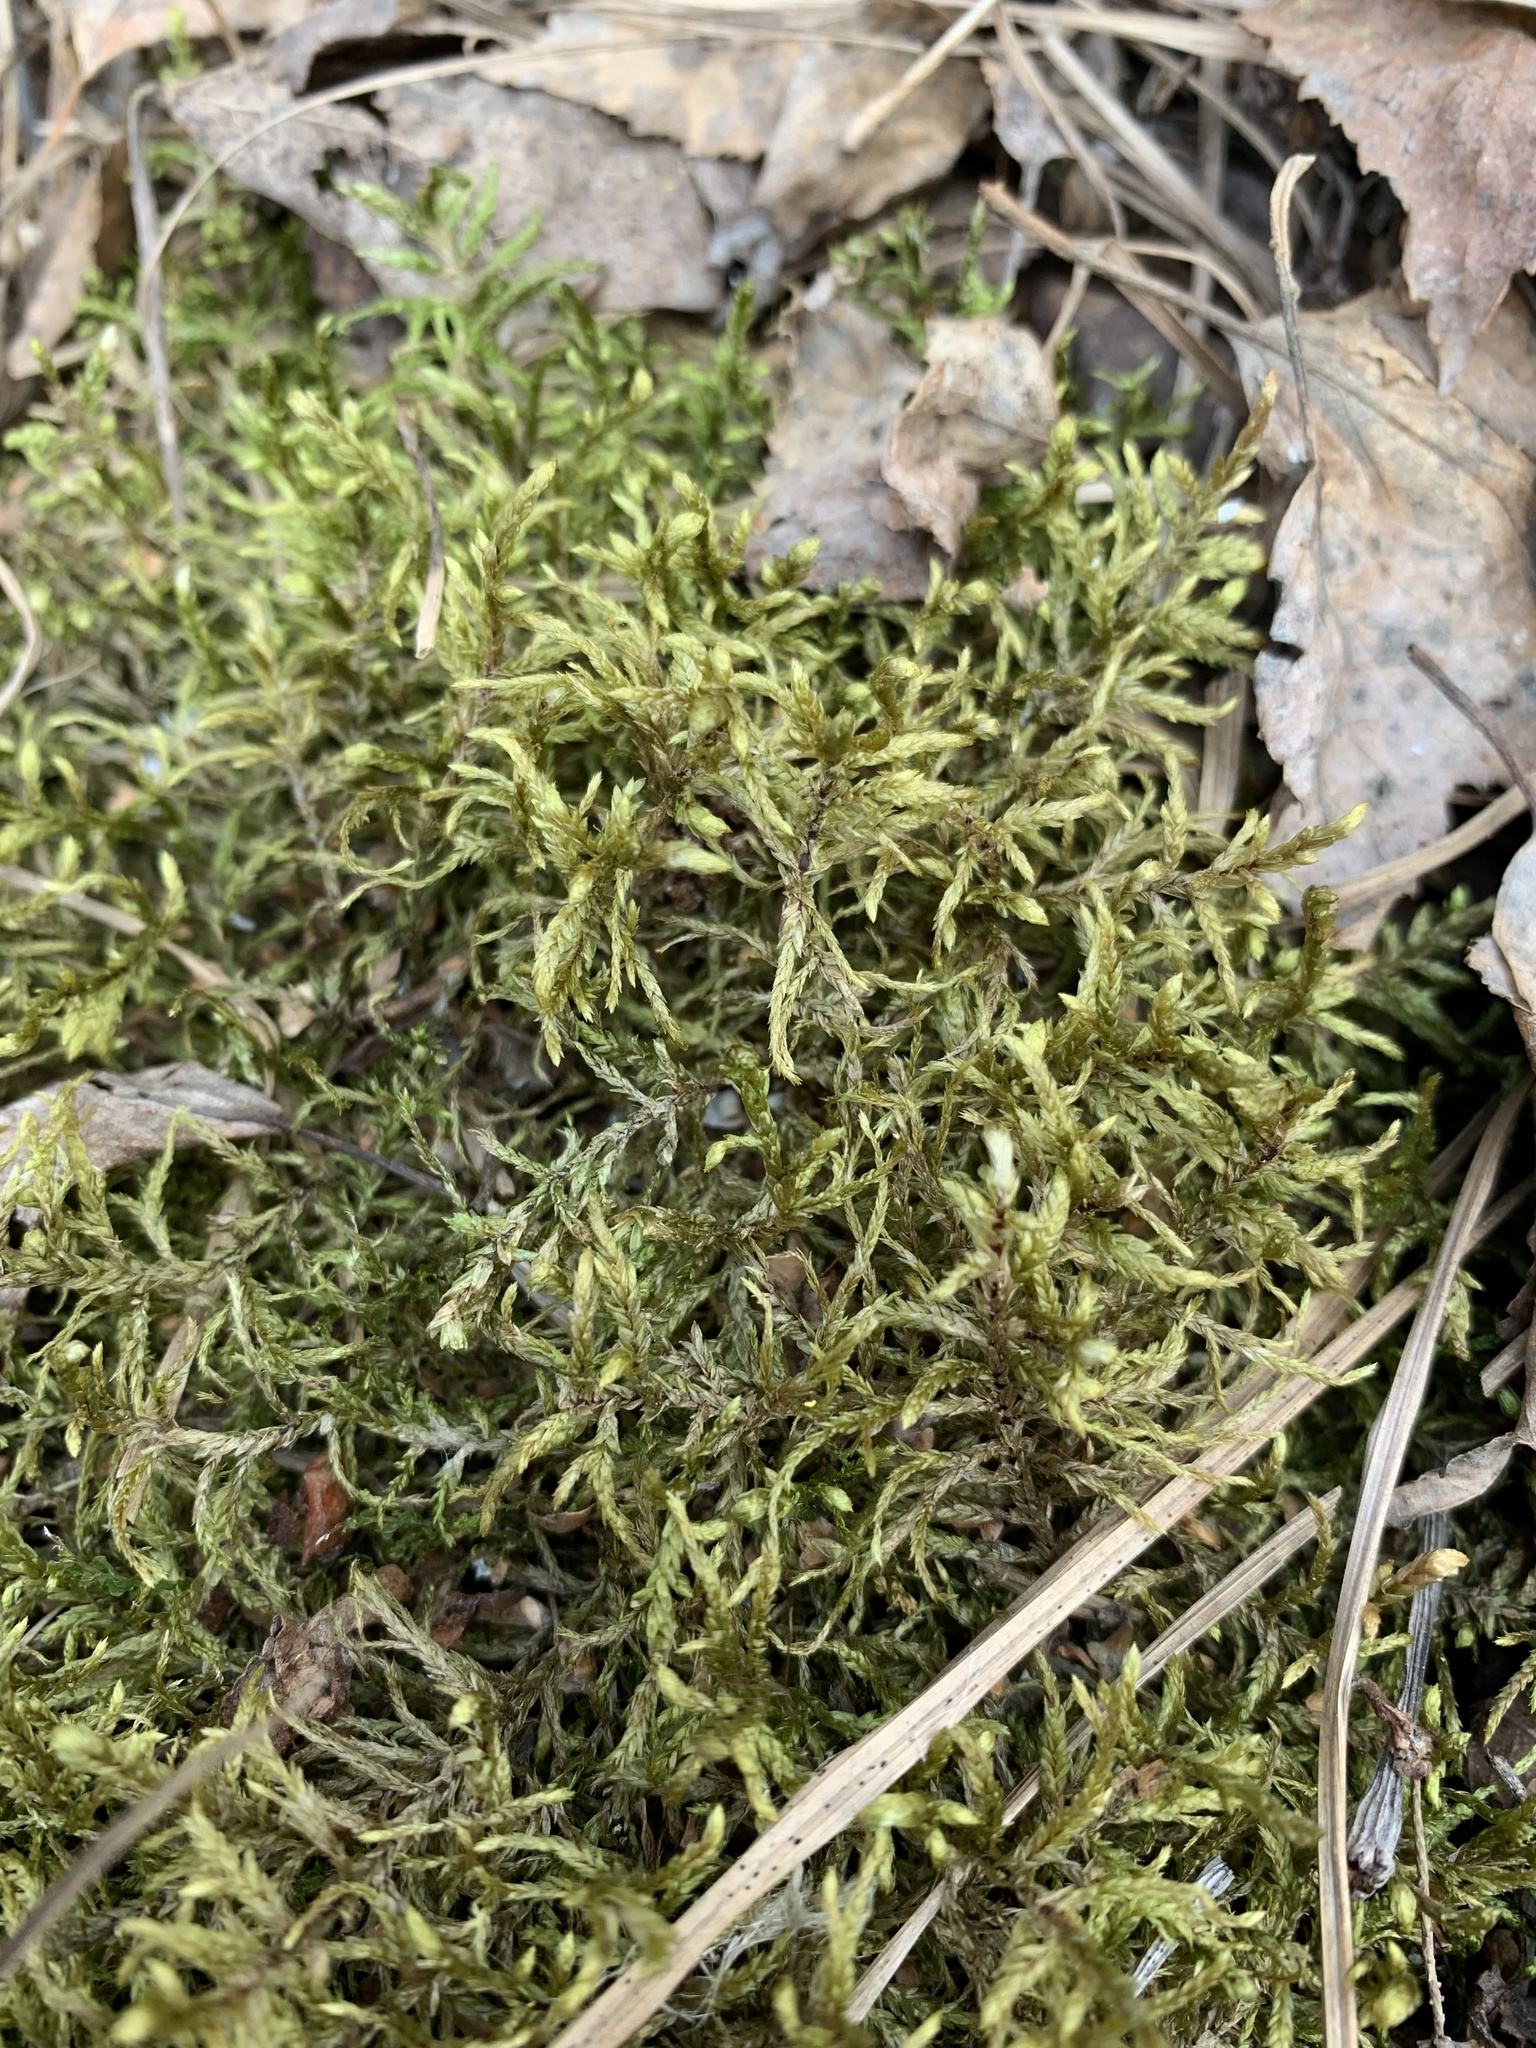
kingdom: Plantae
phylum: Bryophyta
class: Bryopsida
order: Hypnales
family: Hylocomiaceae
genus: Pleurozium
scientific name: Pleurozium schreberi
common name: Red-stemmed feather moss
